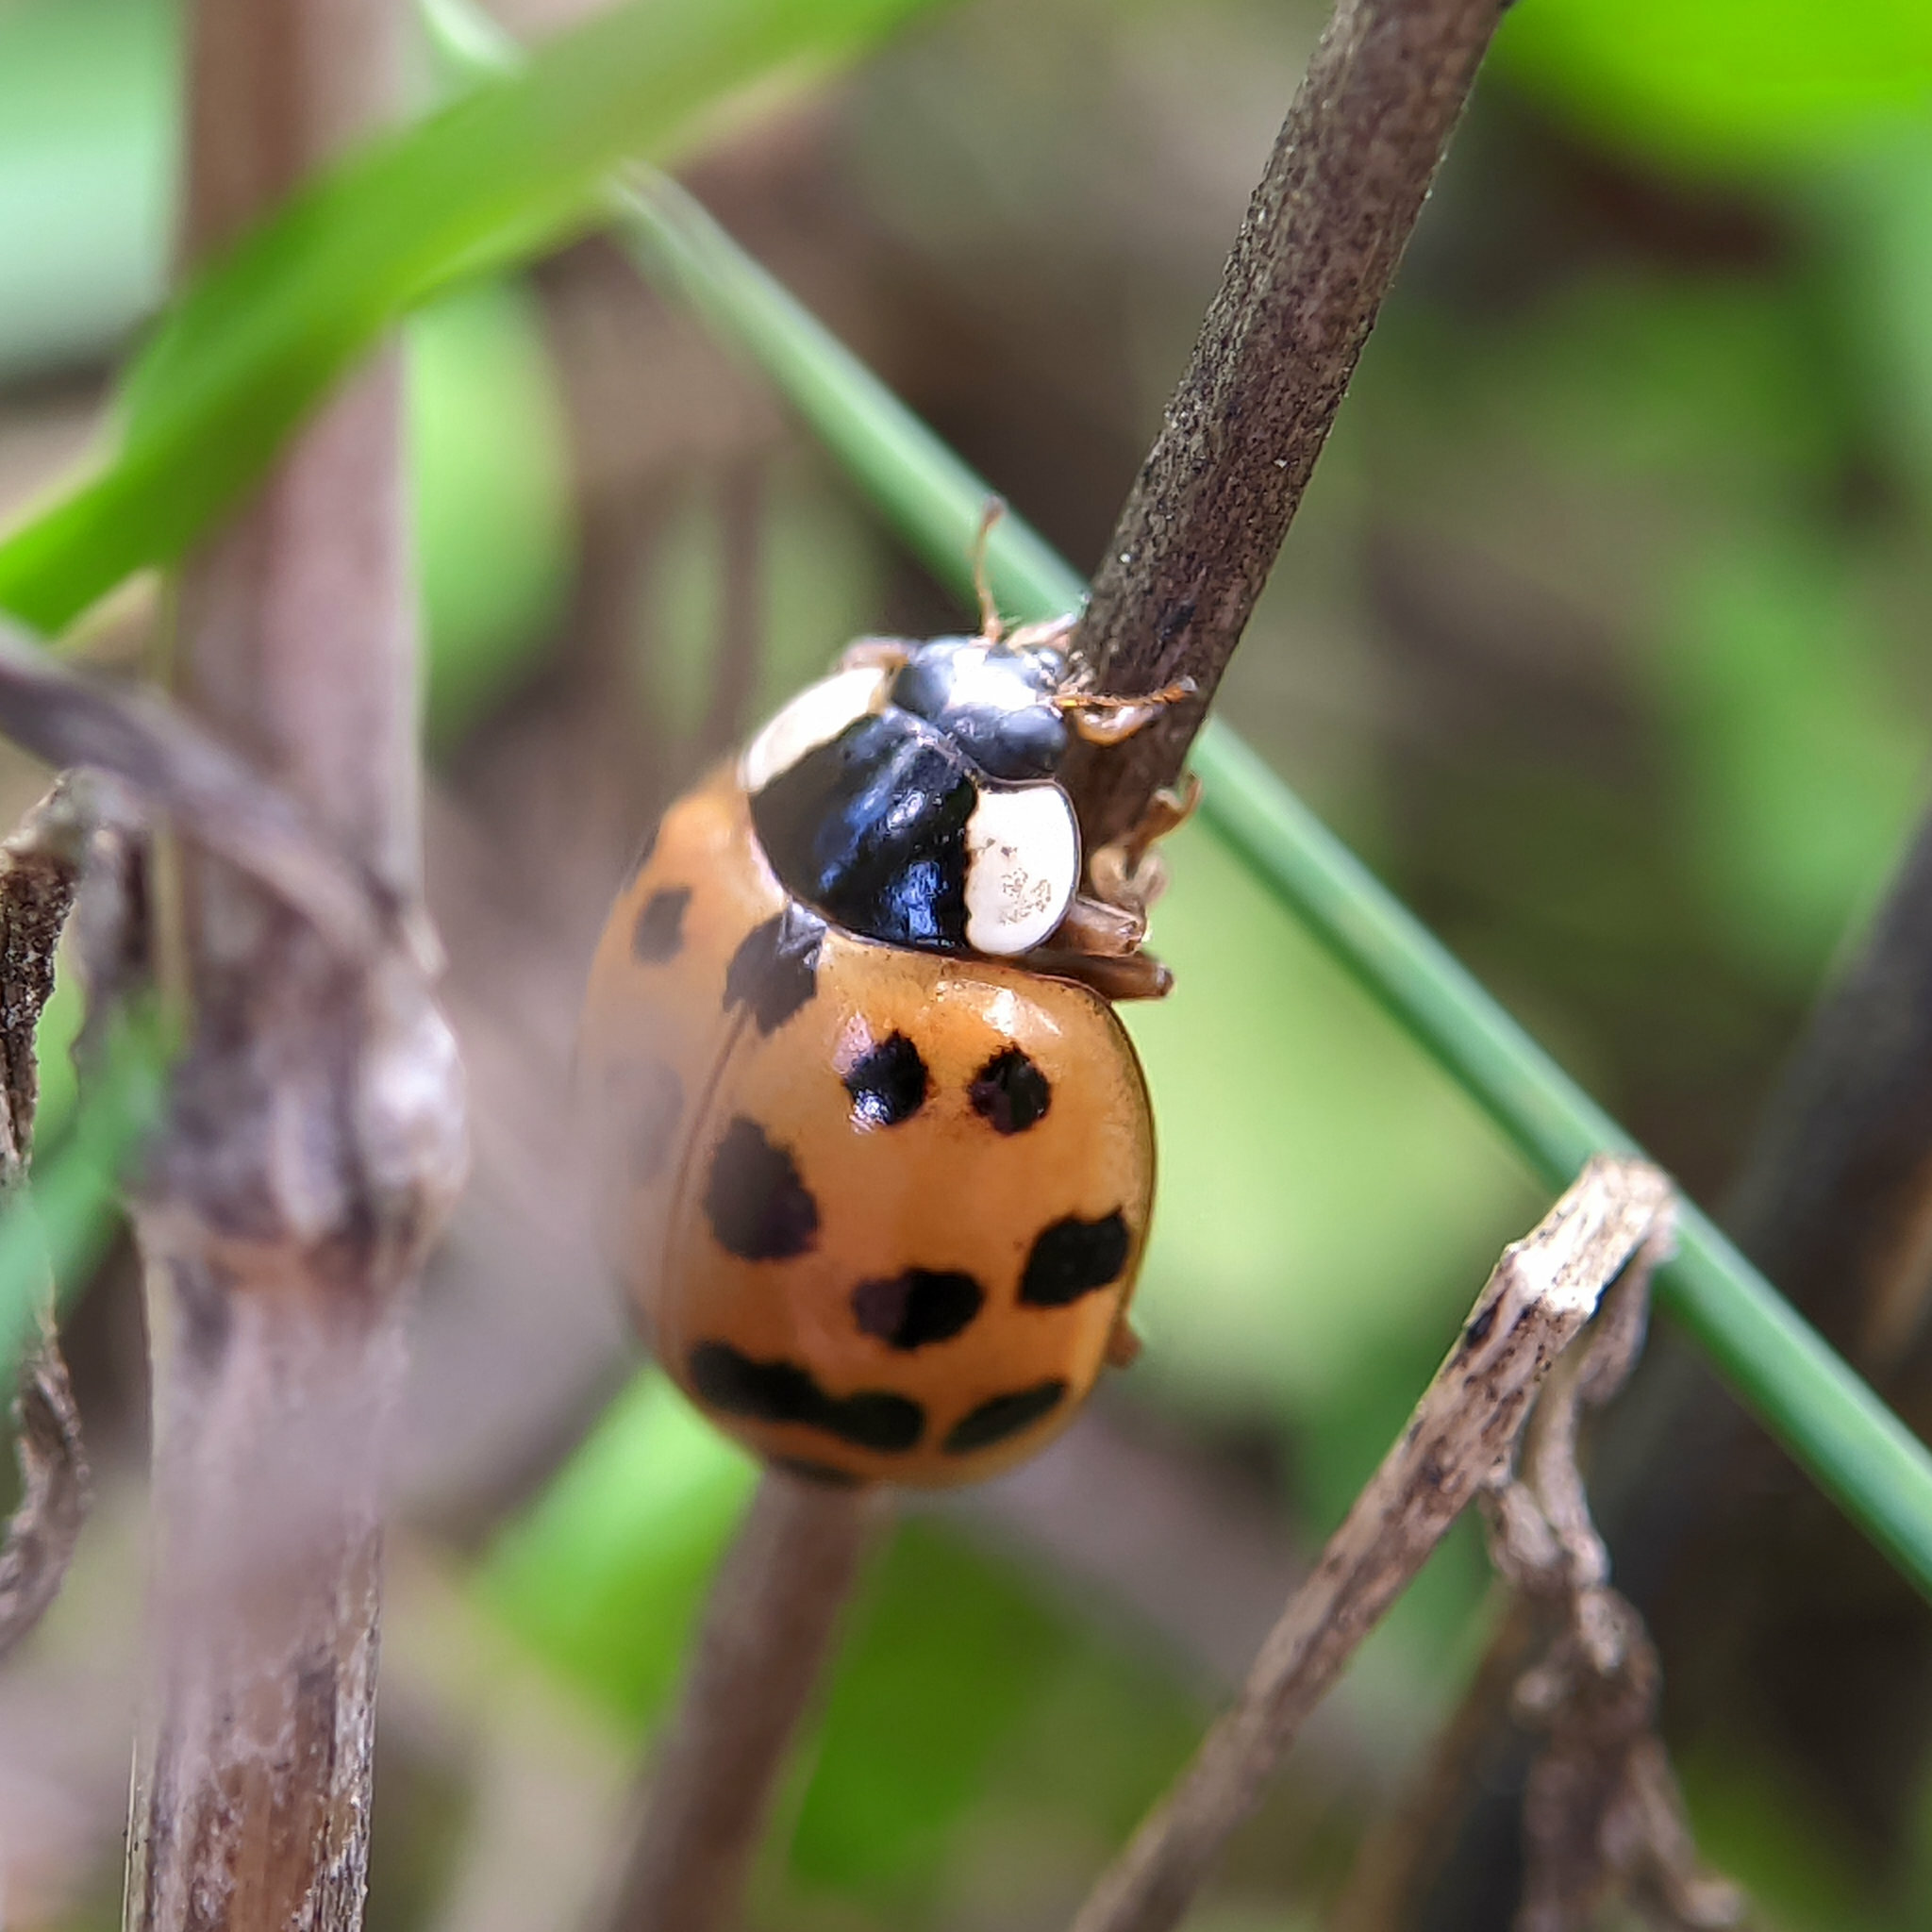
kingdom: Animalia
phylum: Arthropoda
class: Insecta
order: Coleoptera
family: Coccinellidae
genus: Harmonia
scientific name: Harmonia axyridis
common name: Harlequin ladybird
